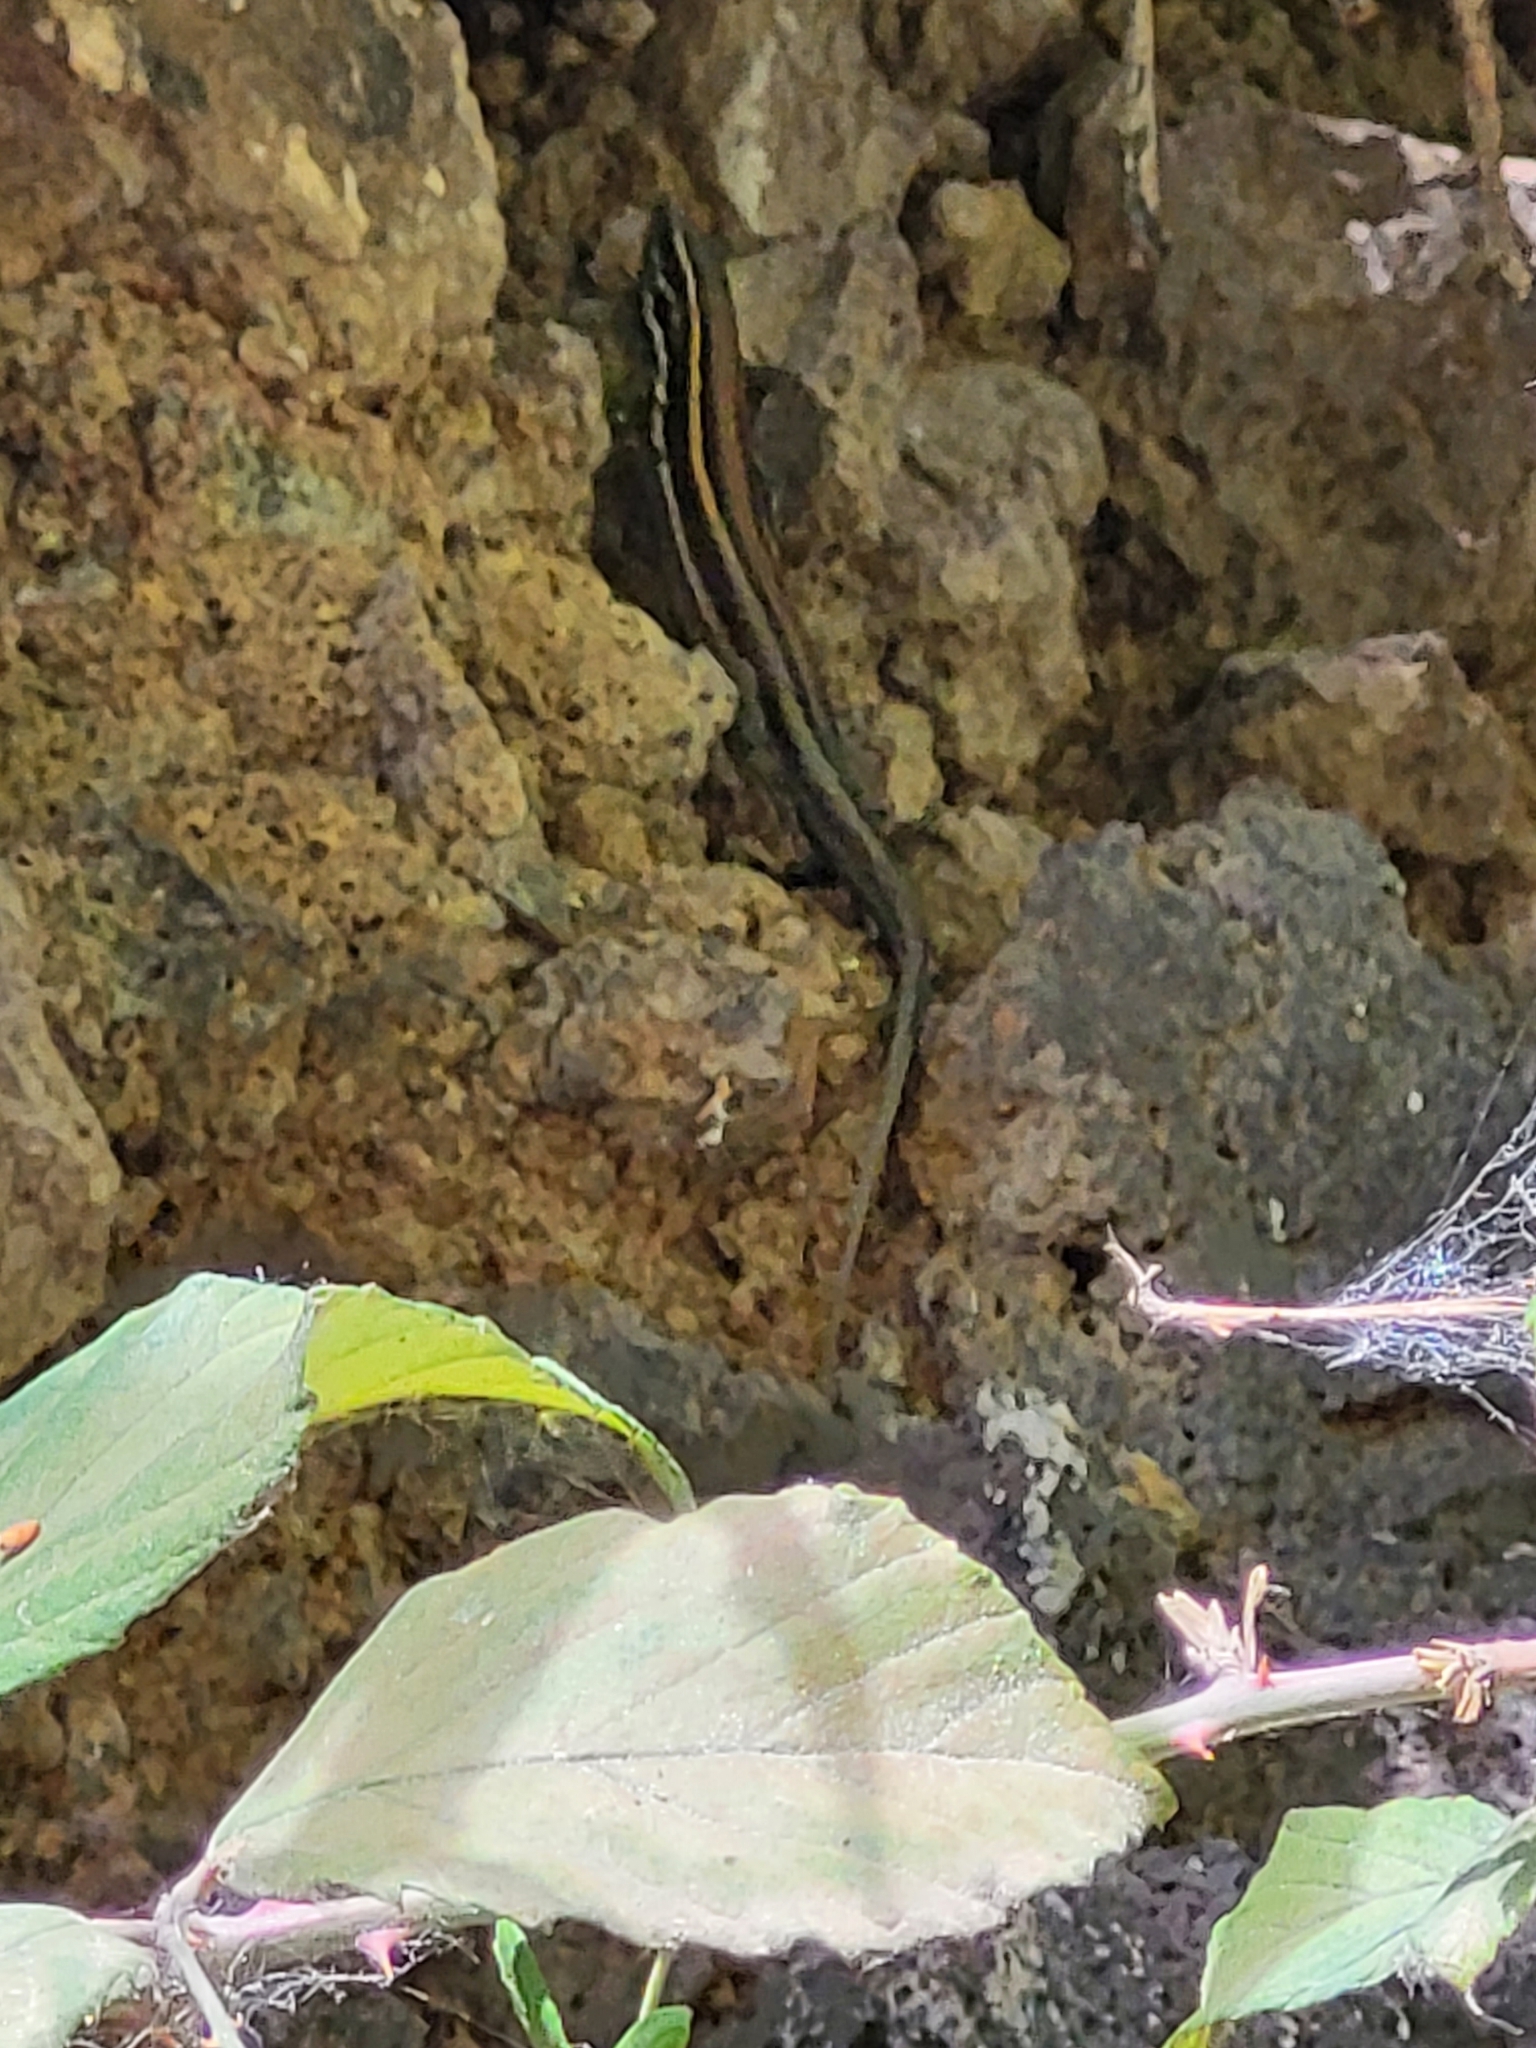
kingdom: Animalia
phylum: Chordata
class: Squamata
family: Lacertidae
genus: Gallotia
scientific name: Gallotia caesaris
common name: Boettger's lizard
